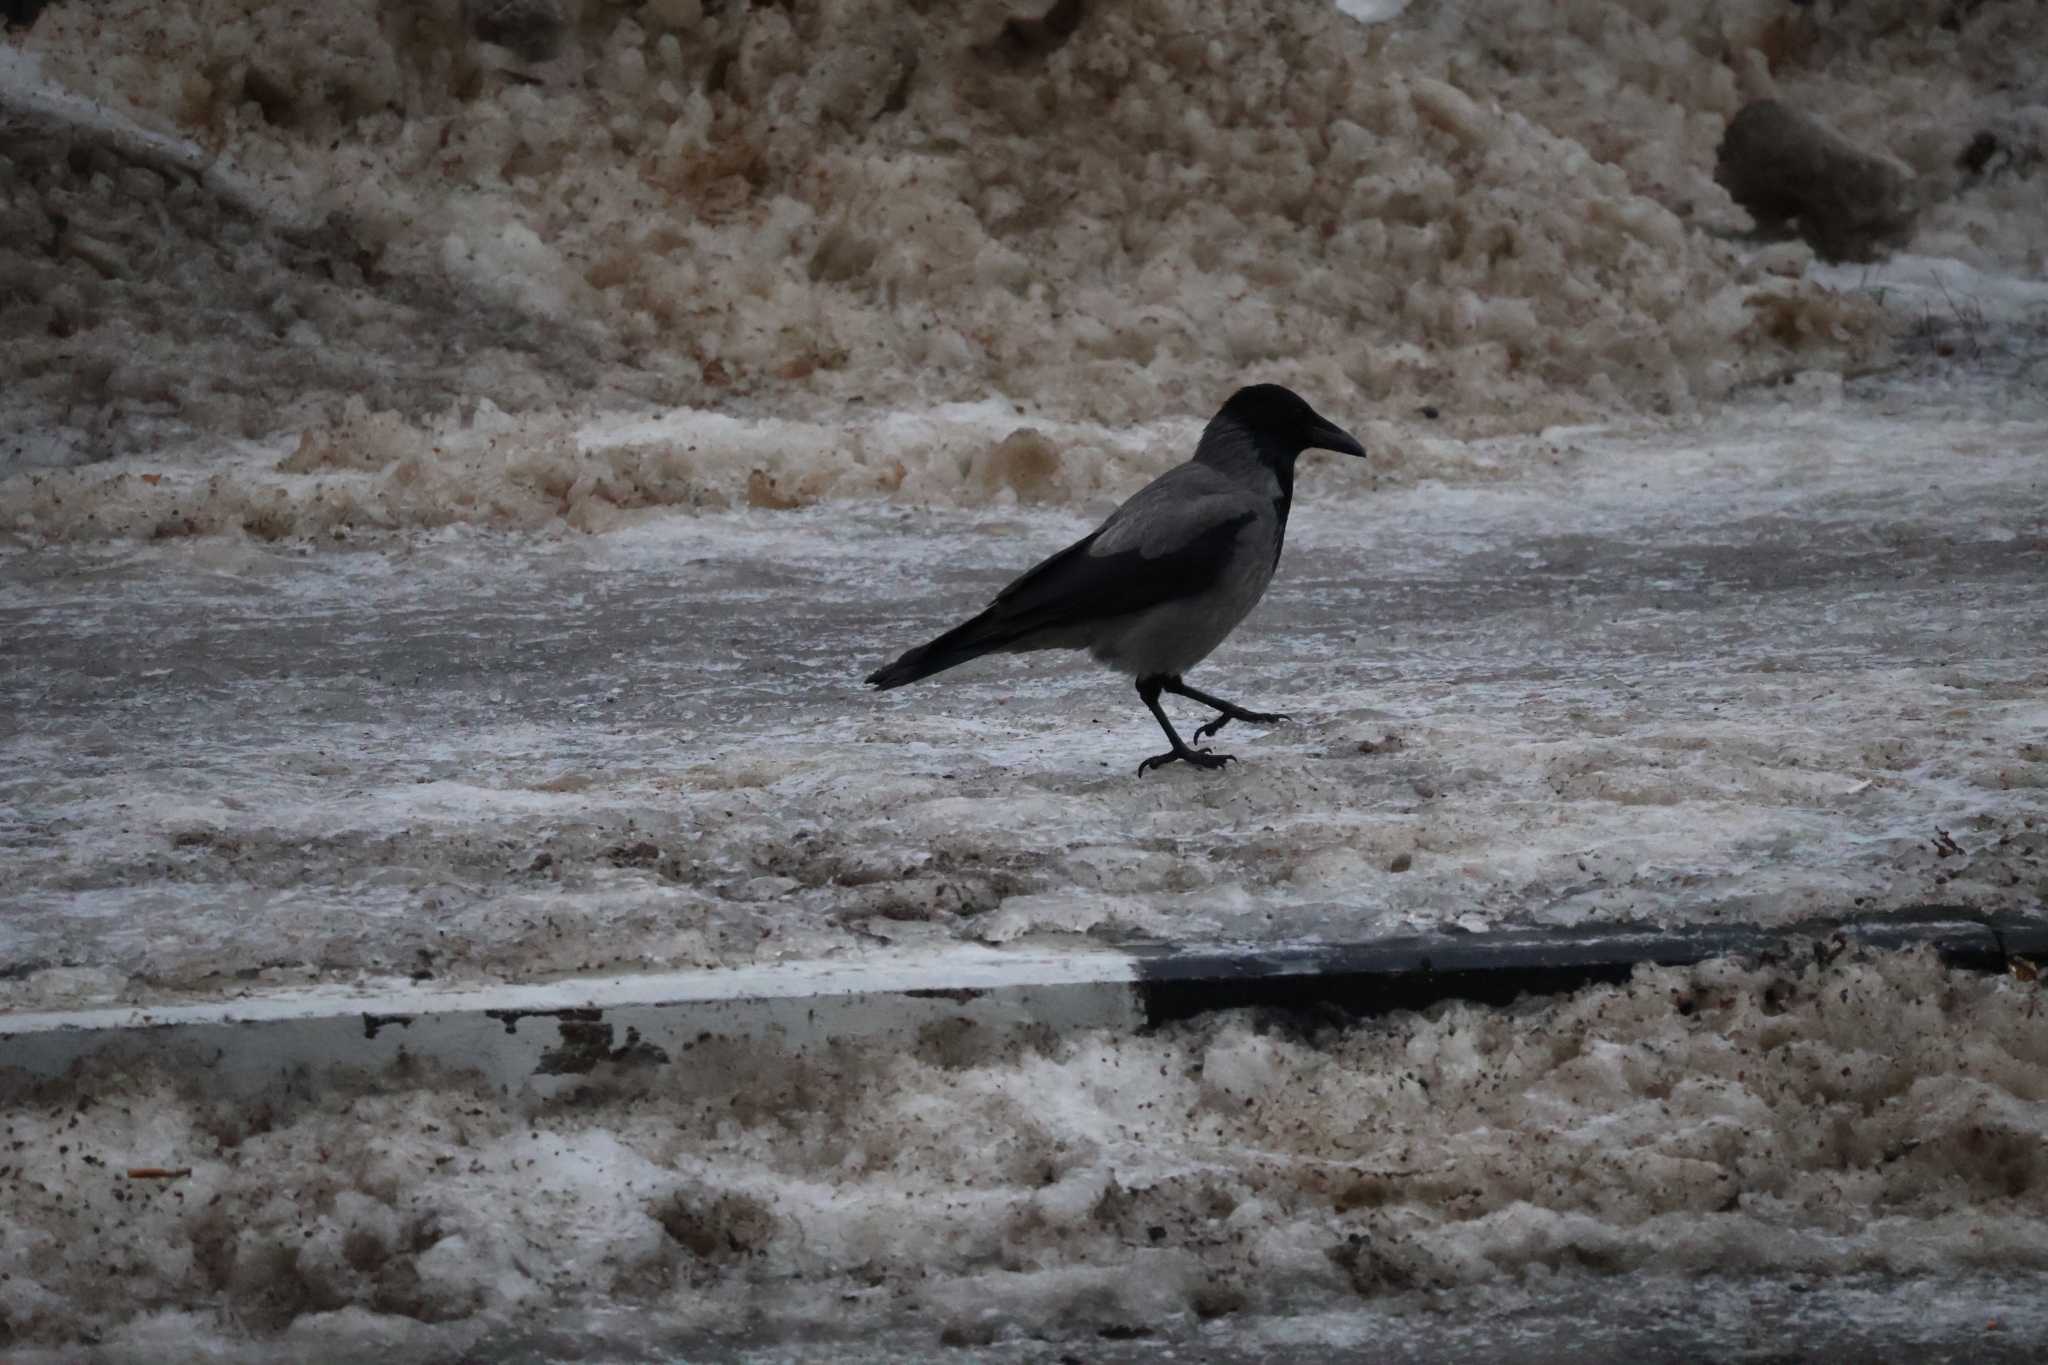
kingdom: Animalia
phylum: Chordata
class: Aves
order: Passeriformes
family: Corvidae
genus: Corvus
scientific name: Corvus cornix
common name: Hooded crow
